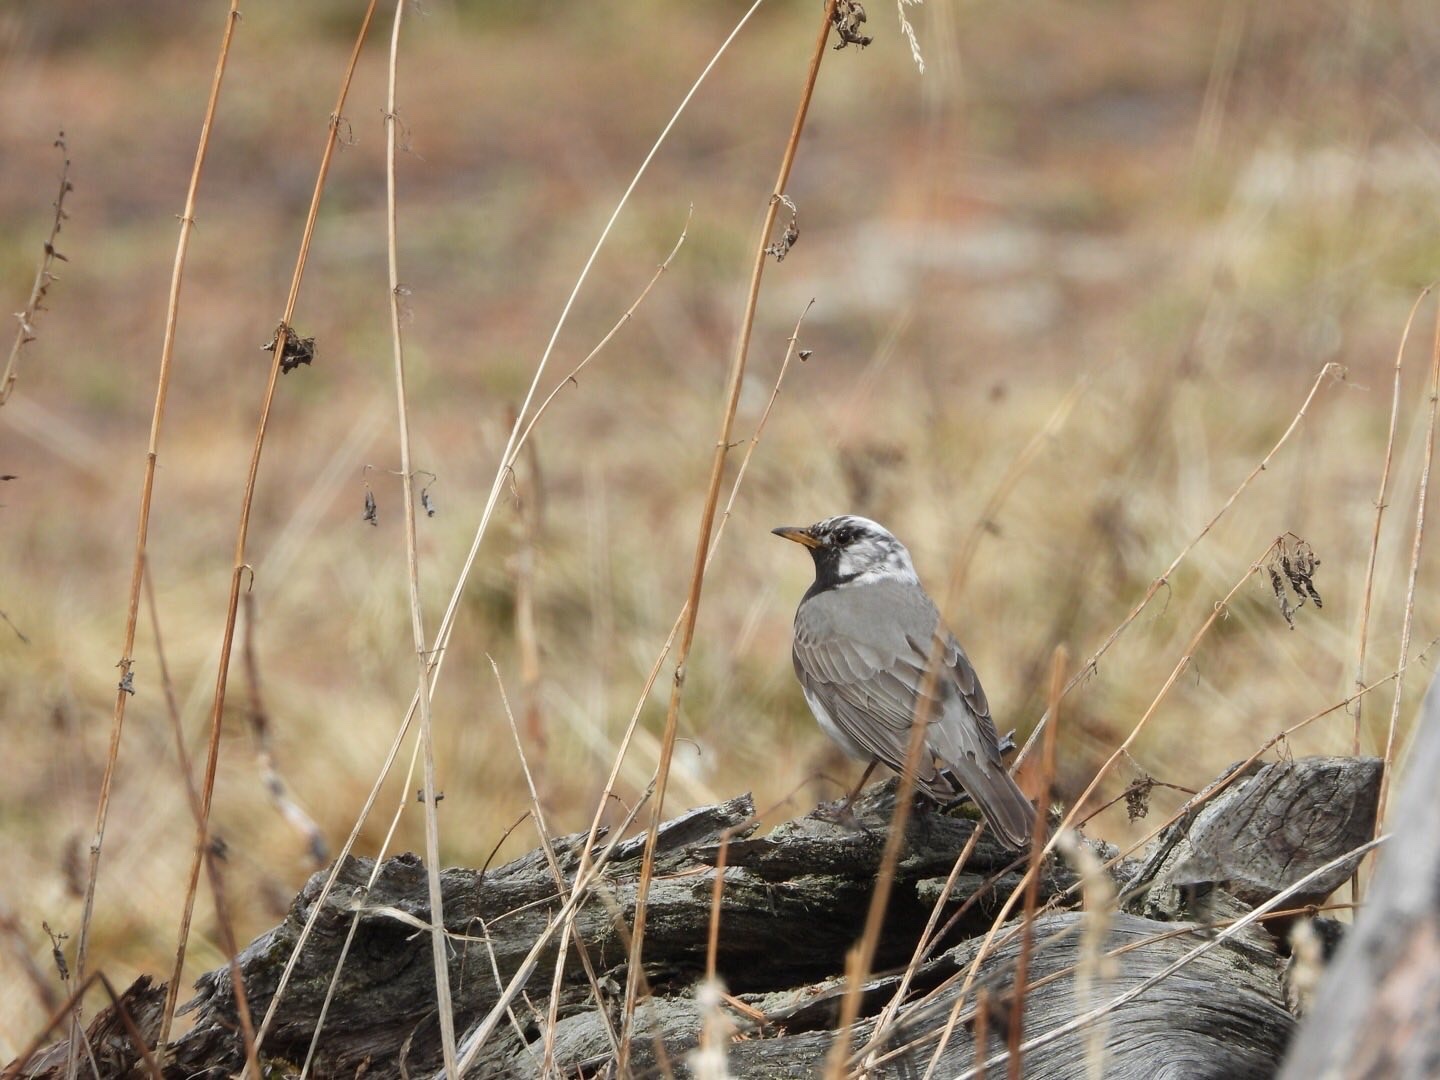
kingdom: Animalia
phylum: Chordata
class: Aves
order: Passeriformes
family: Turdidae
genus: Turdus
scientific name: Turdus atrogularis
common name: Black-throated thrush
